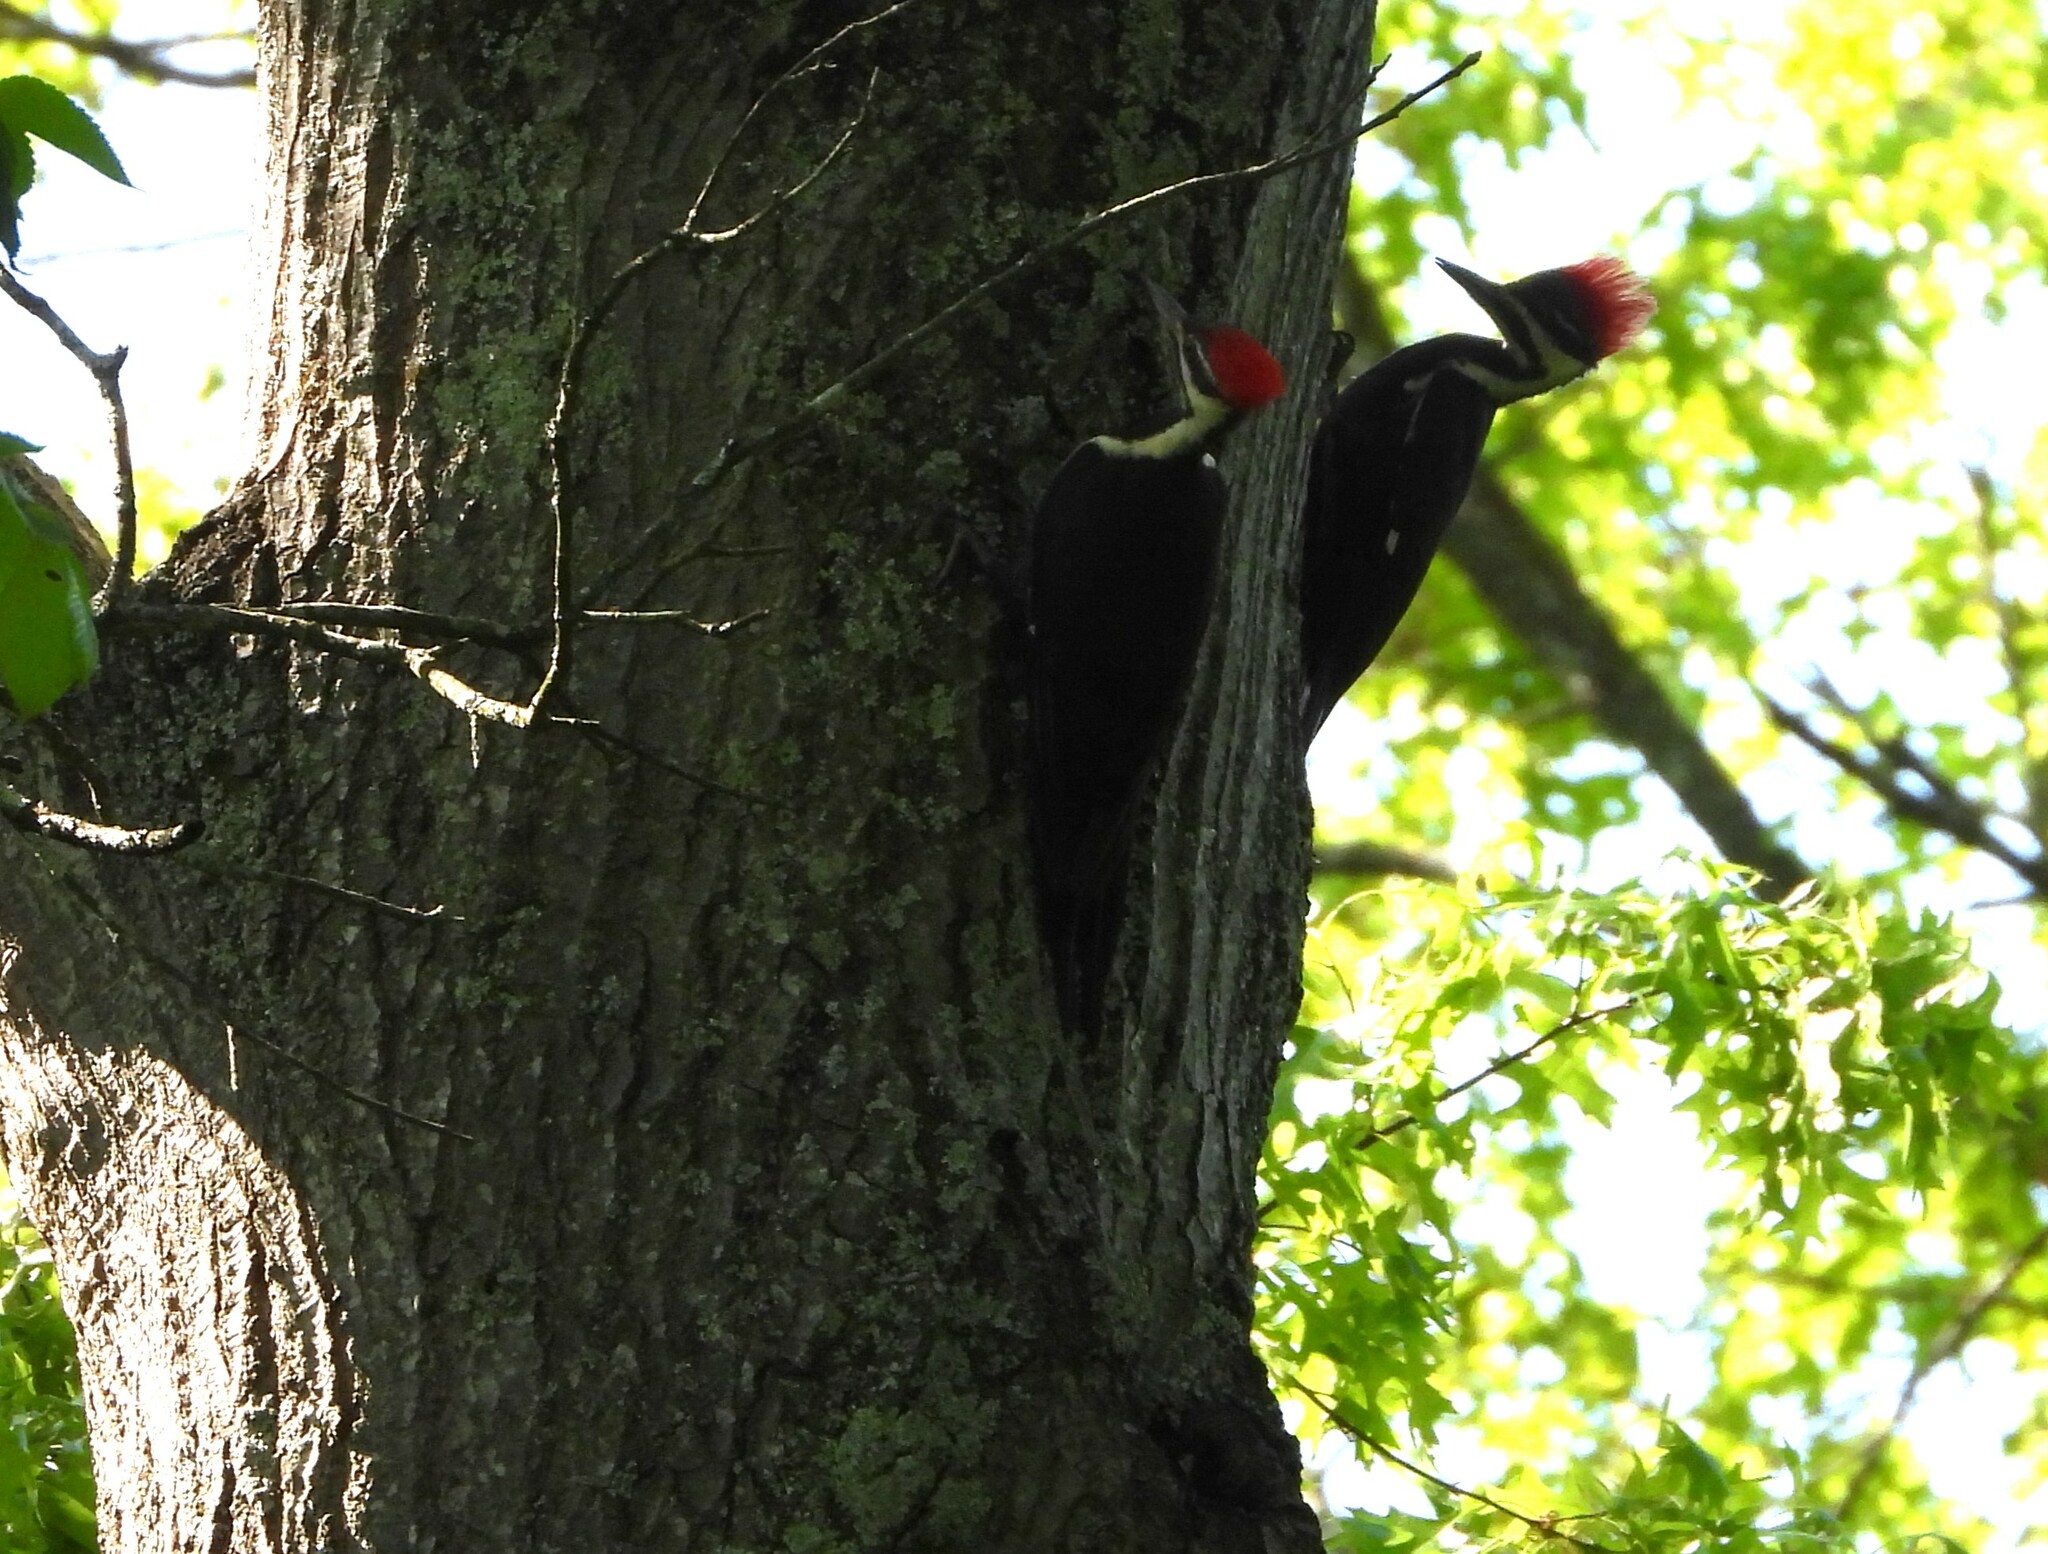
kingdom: Animalia
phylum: Chordata
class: Aves
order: Piciformes
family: Picidae
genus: Dryocopus
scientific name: Dryocopus pileatus
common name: Pileated woodpecker
